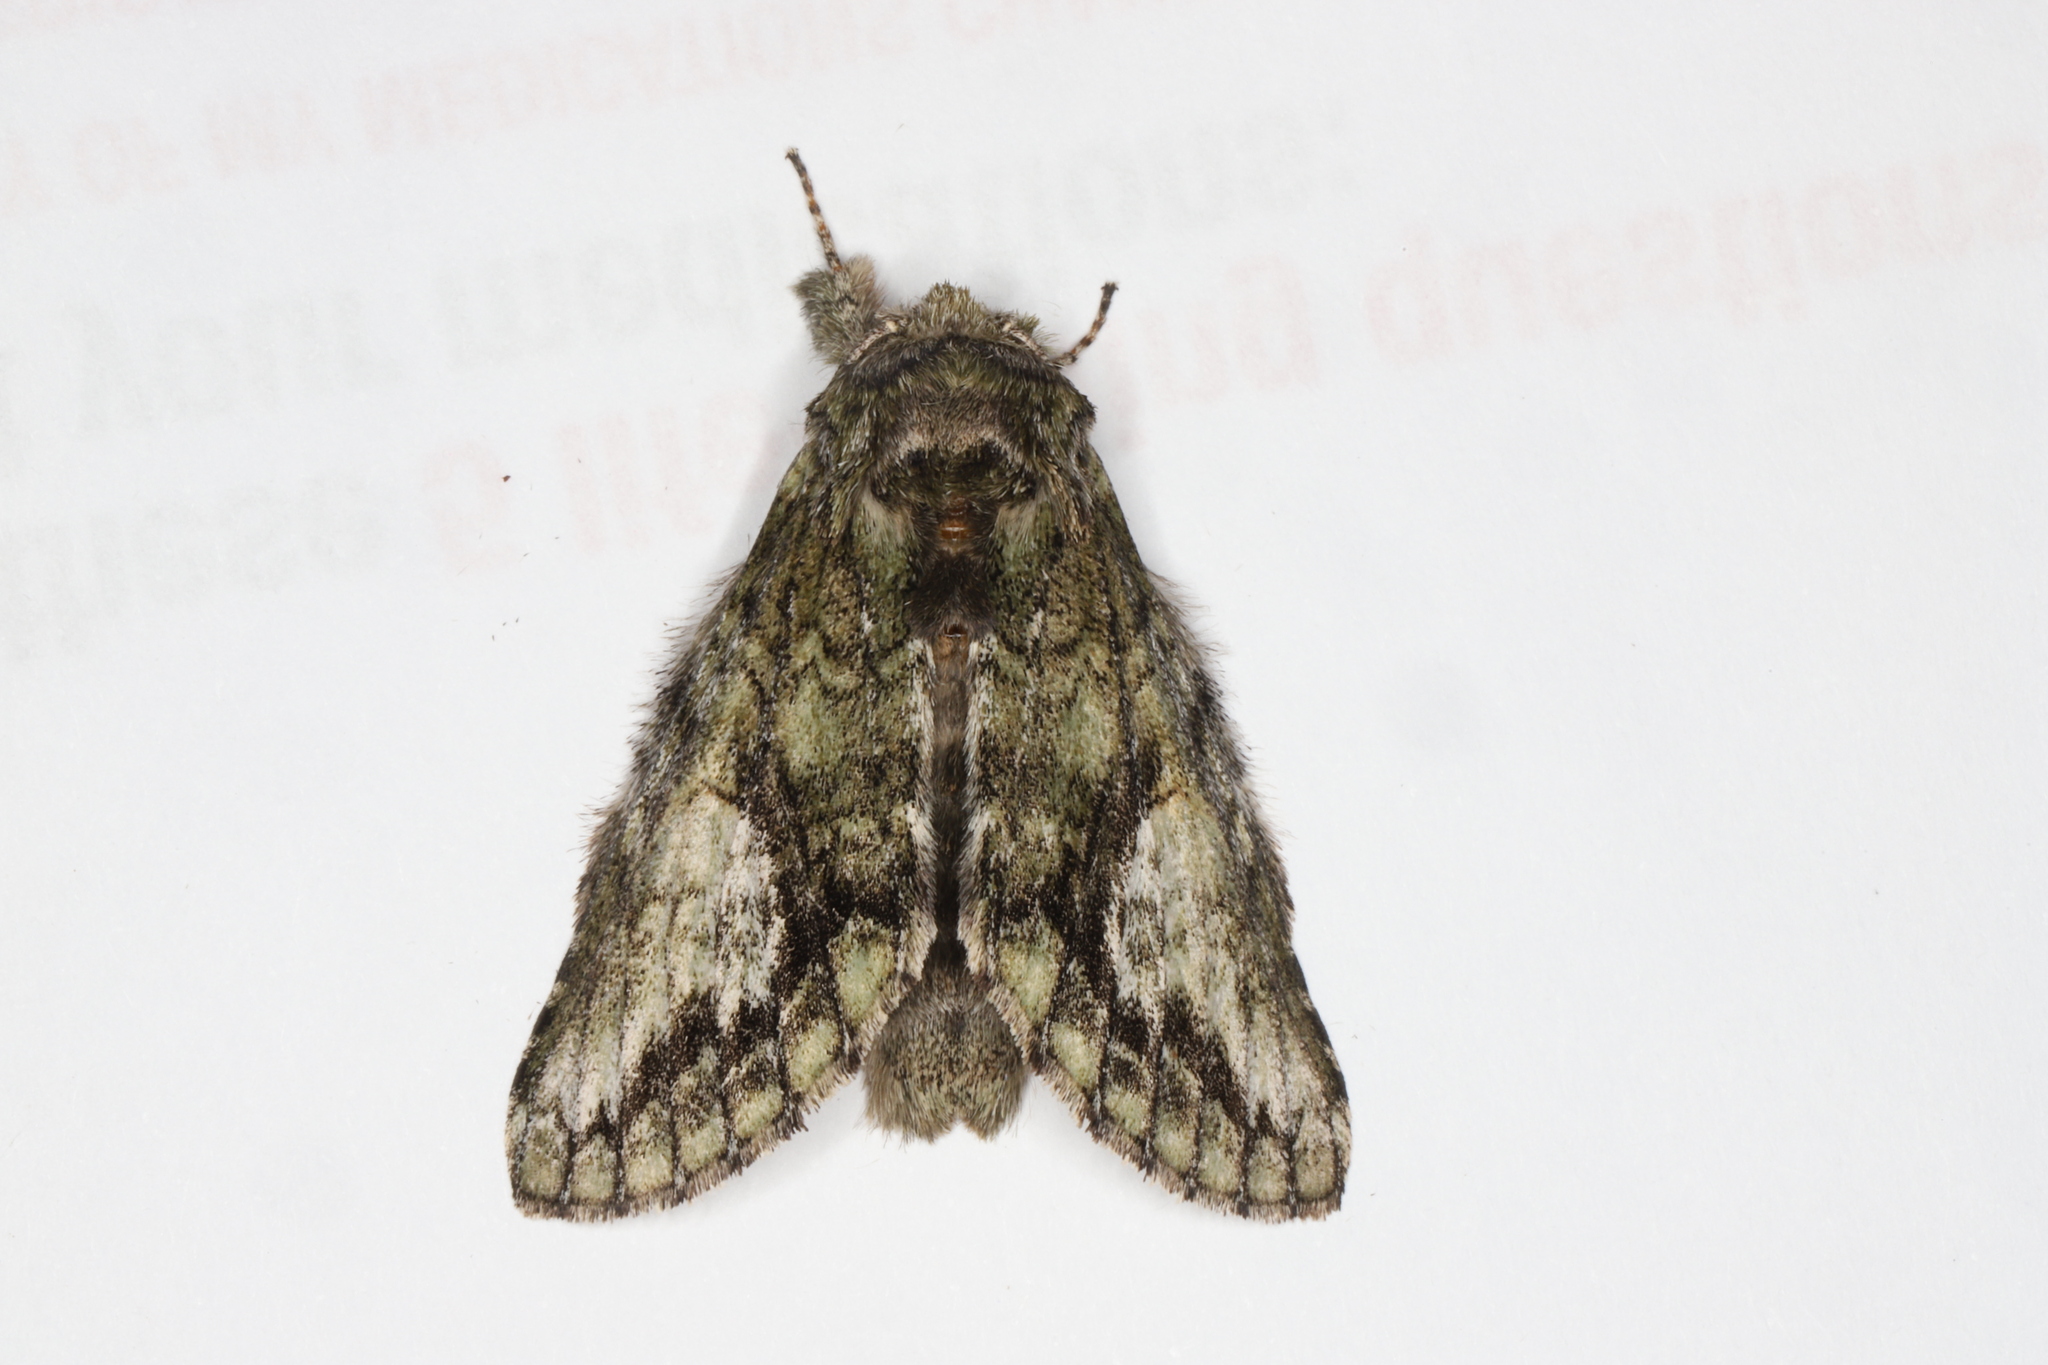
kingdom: Animalia
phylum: Arthropoda
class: Insecta
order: Lepidoptera
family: Notodontidae
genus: Heterocampa
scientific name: Heterocampa
